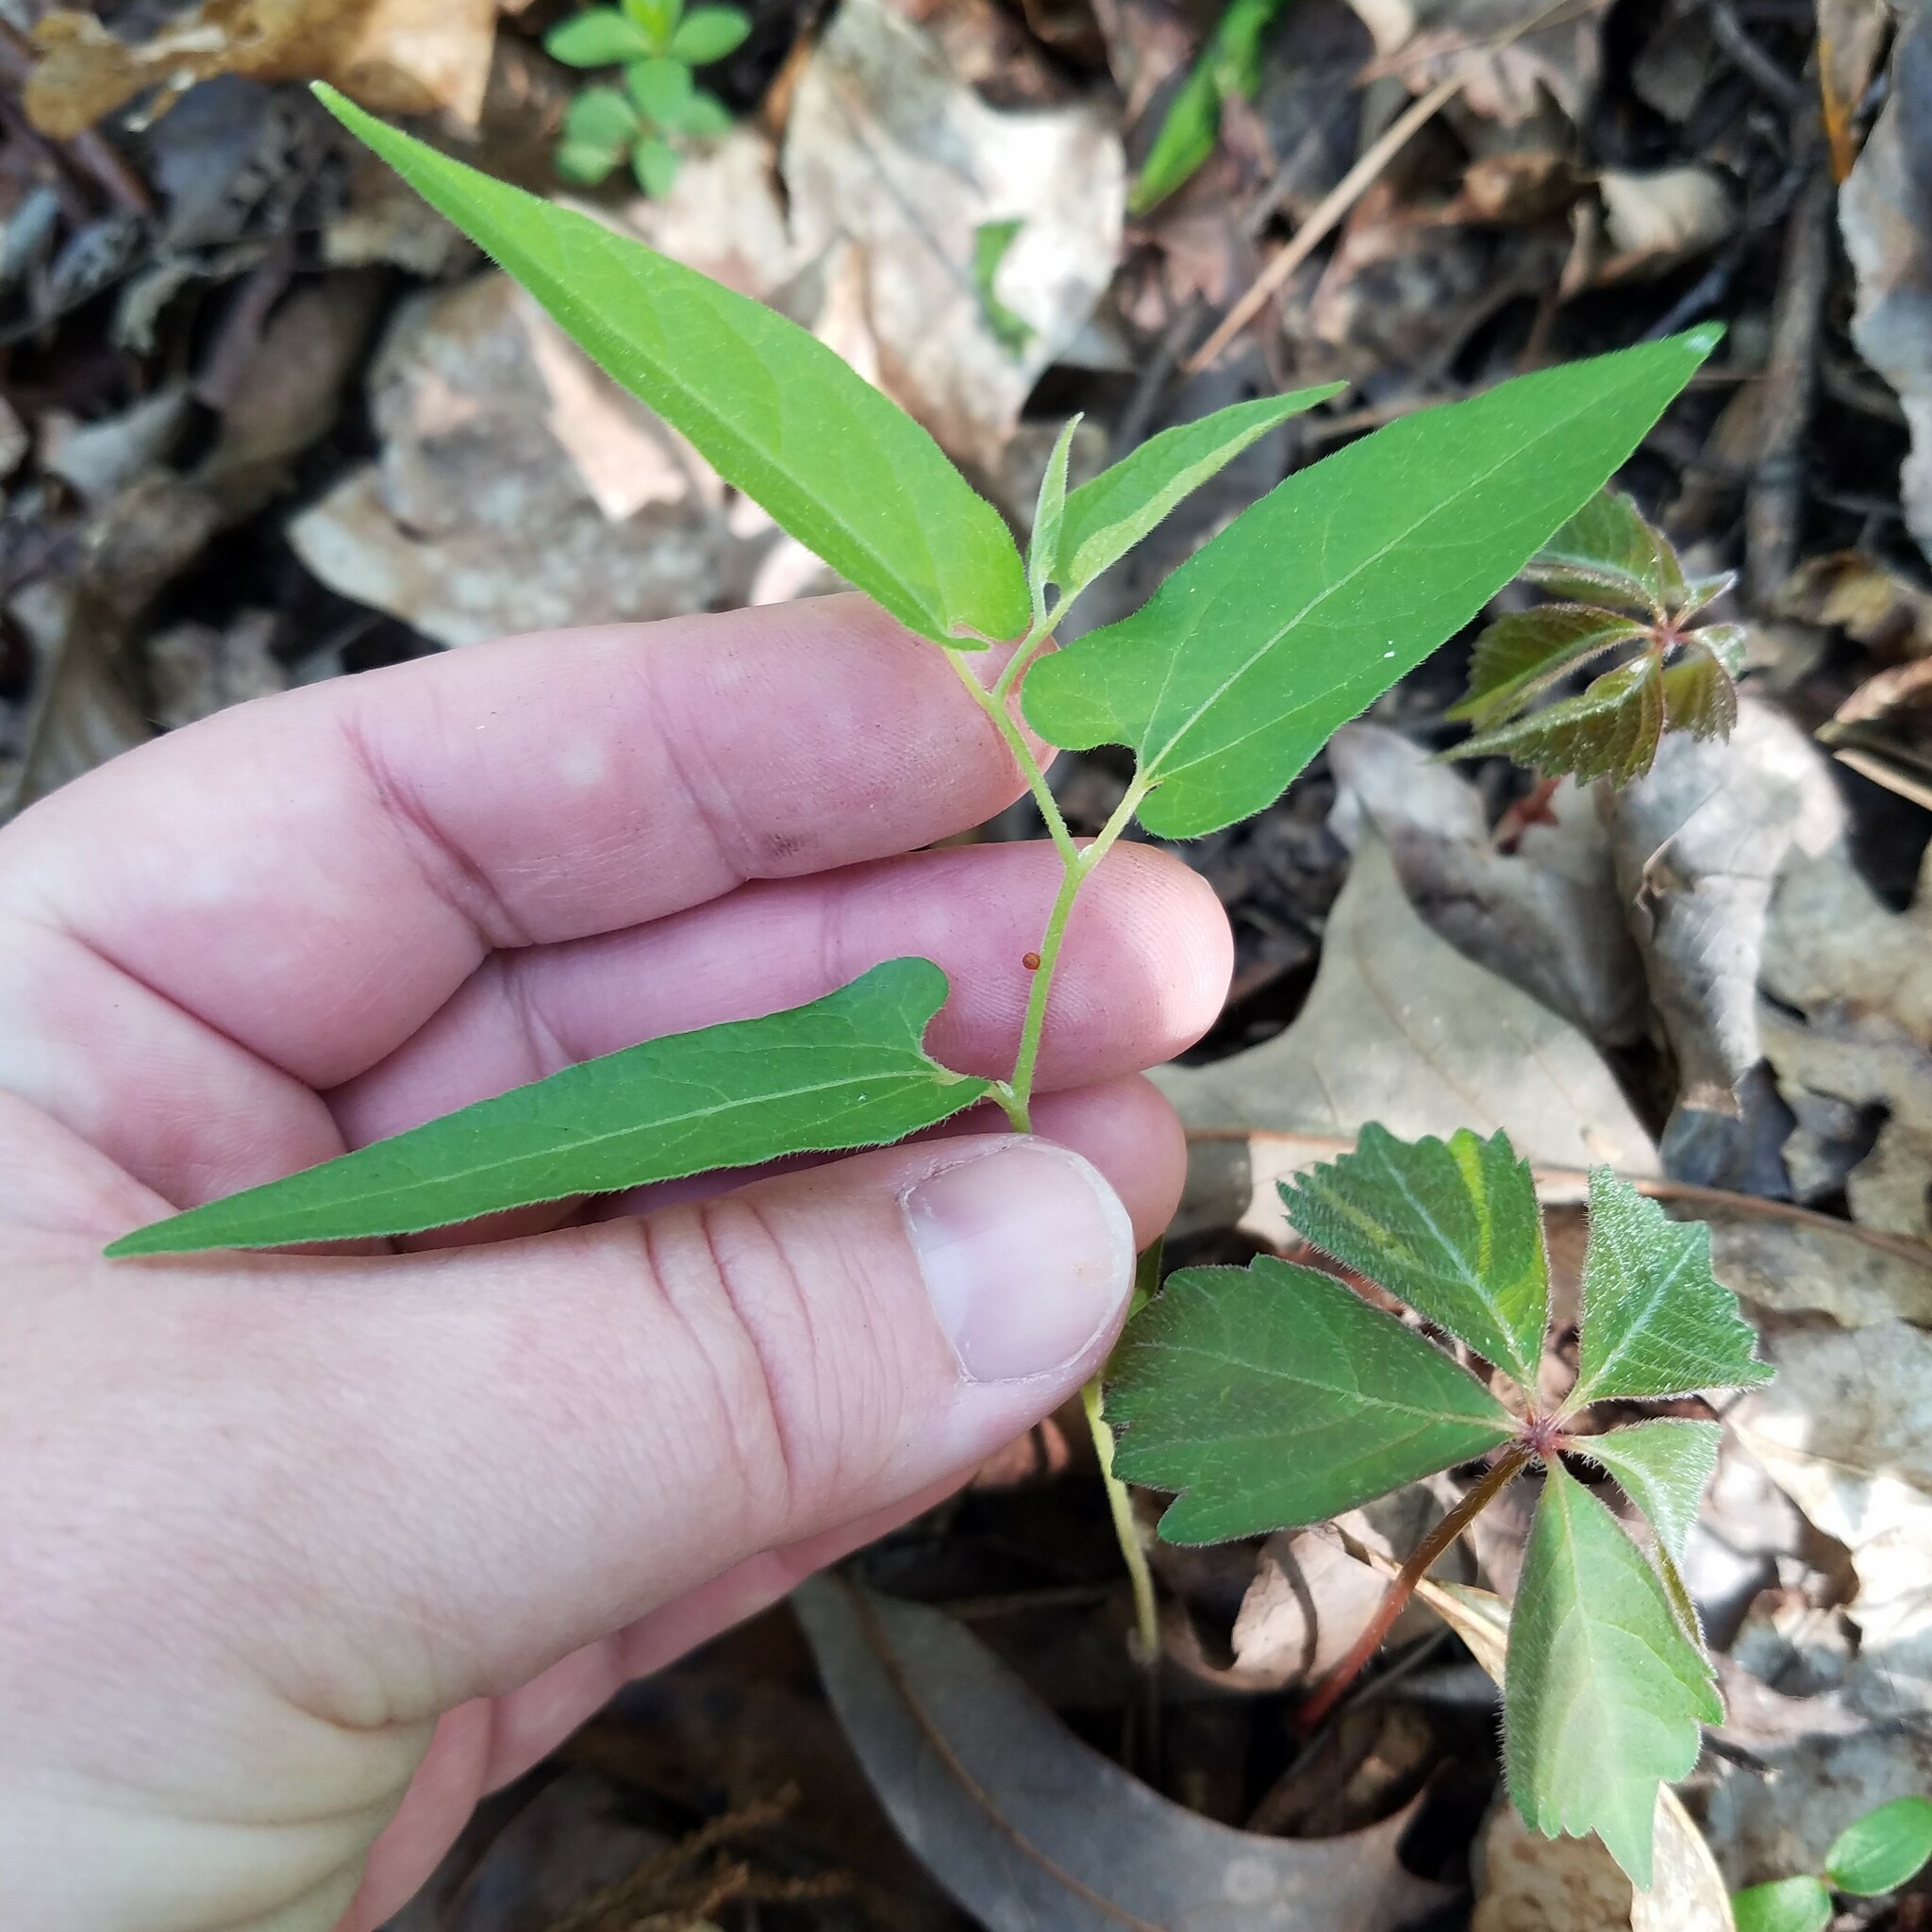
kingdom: Plantae
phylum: Tracheophyta
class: Magnoliopsida
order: Piperales
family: Aristolochiaceae
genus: Endodeca
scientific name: Endodeca serpentaria
